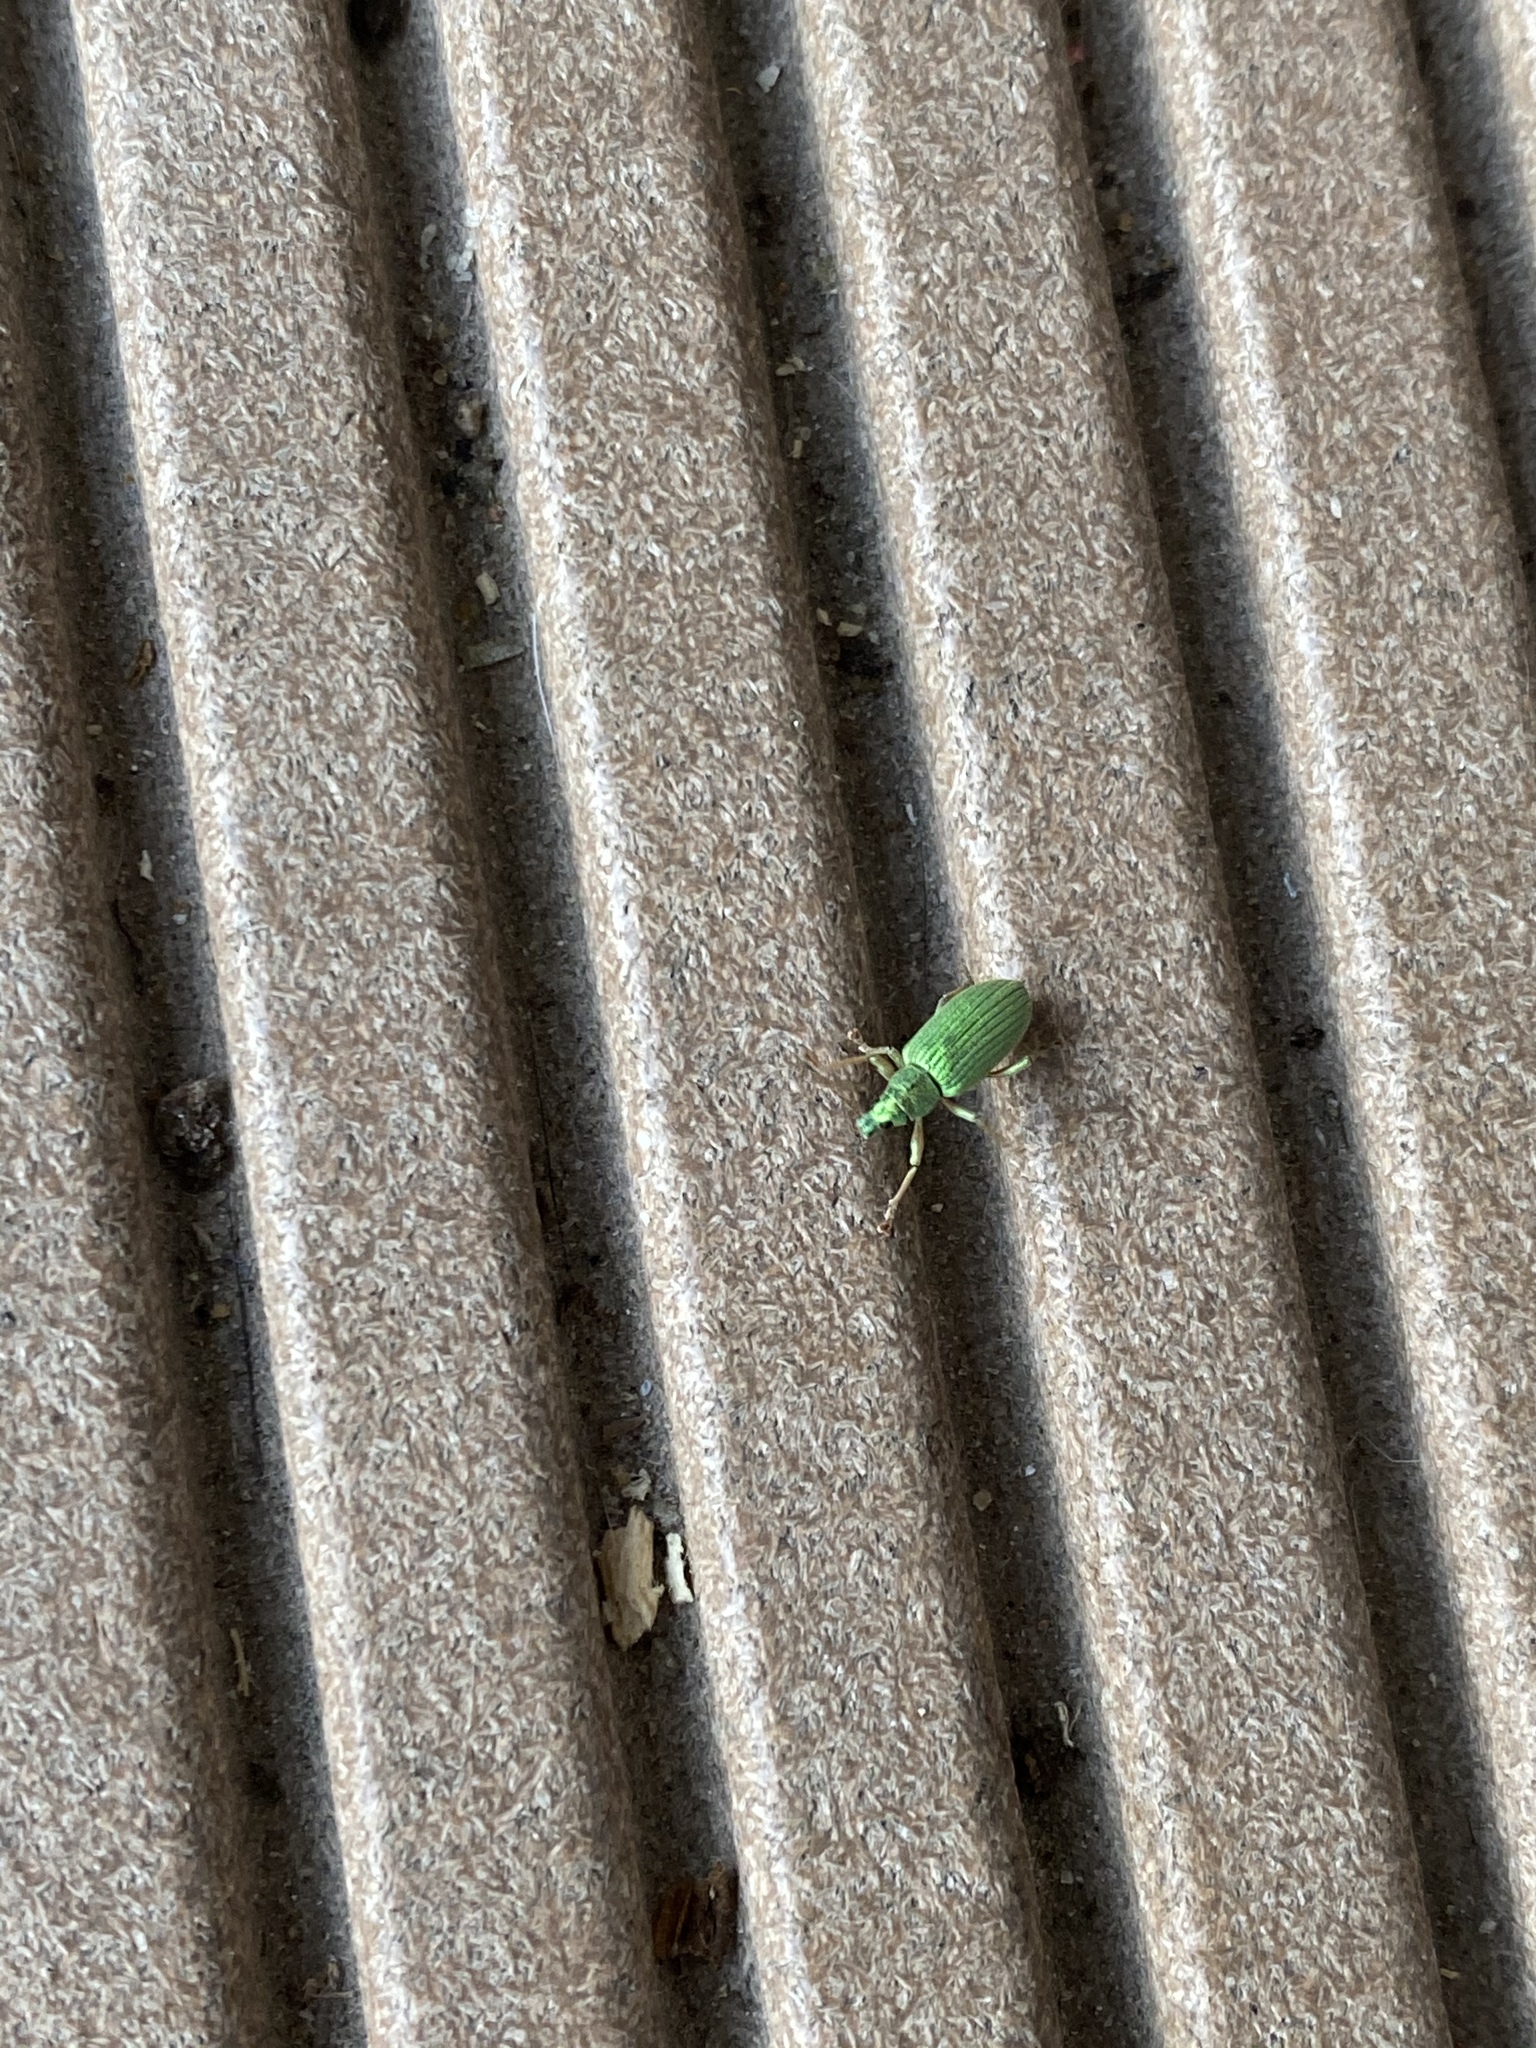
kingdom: Animalia
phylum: Arthropoda
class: Insecta
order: Coleoptera
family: Curculionidae
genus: Phyllobius
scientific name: Phyllobius virideaeris
